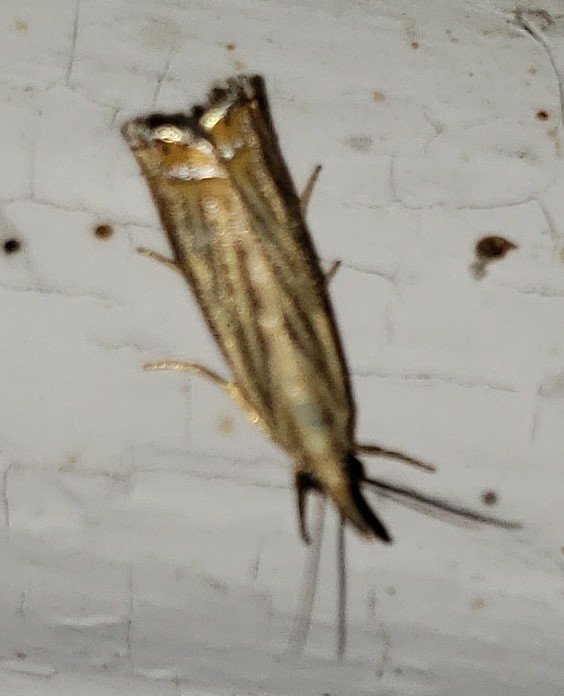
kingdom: Animalia
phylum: Arthropoda
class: Insecta
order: Lepidoptera
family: Crambidae
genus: Chrysoteuchia
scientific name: Chrysoteuchia topiarius
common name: Topiary grass-veneer
